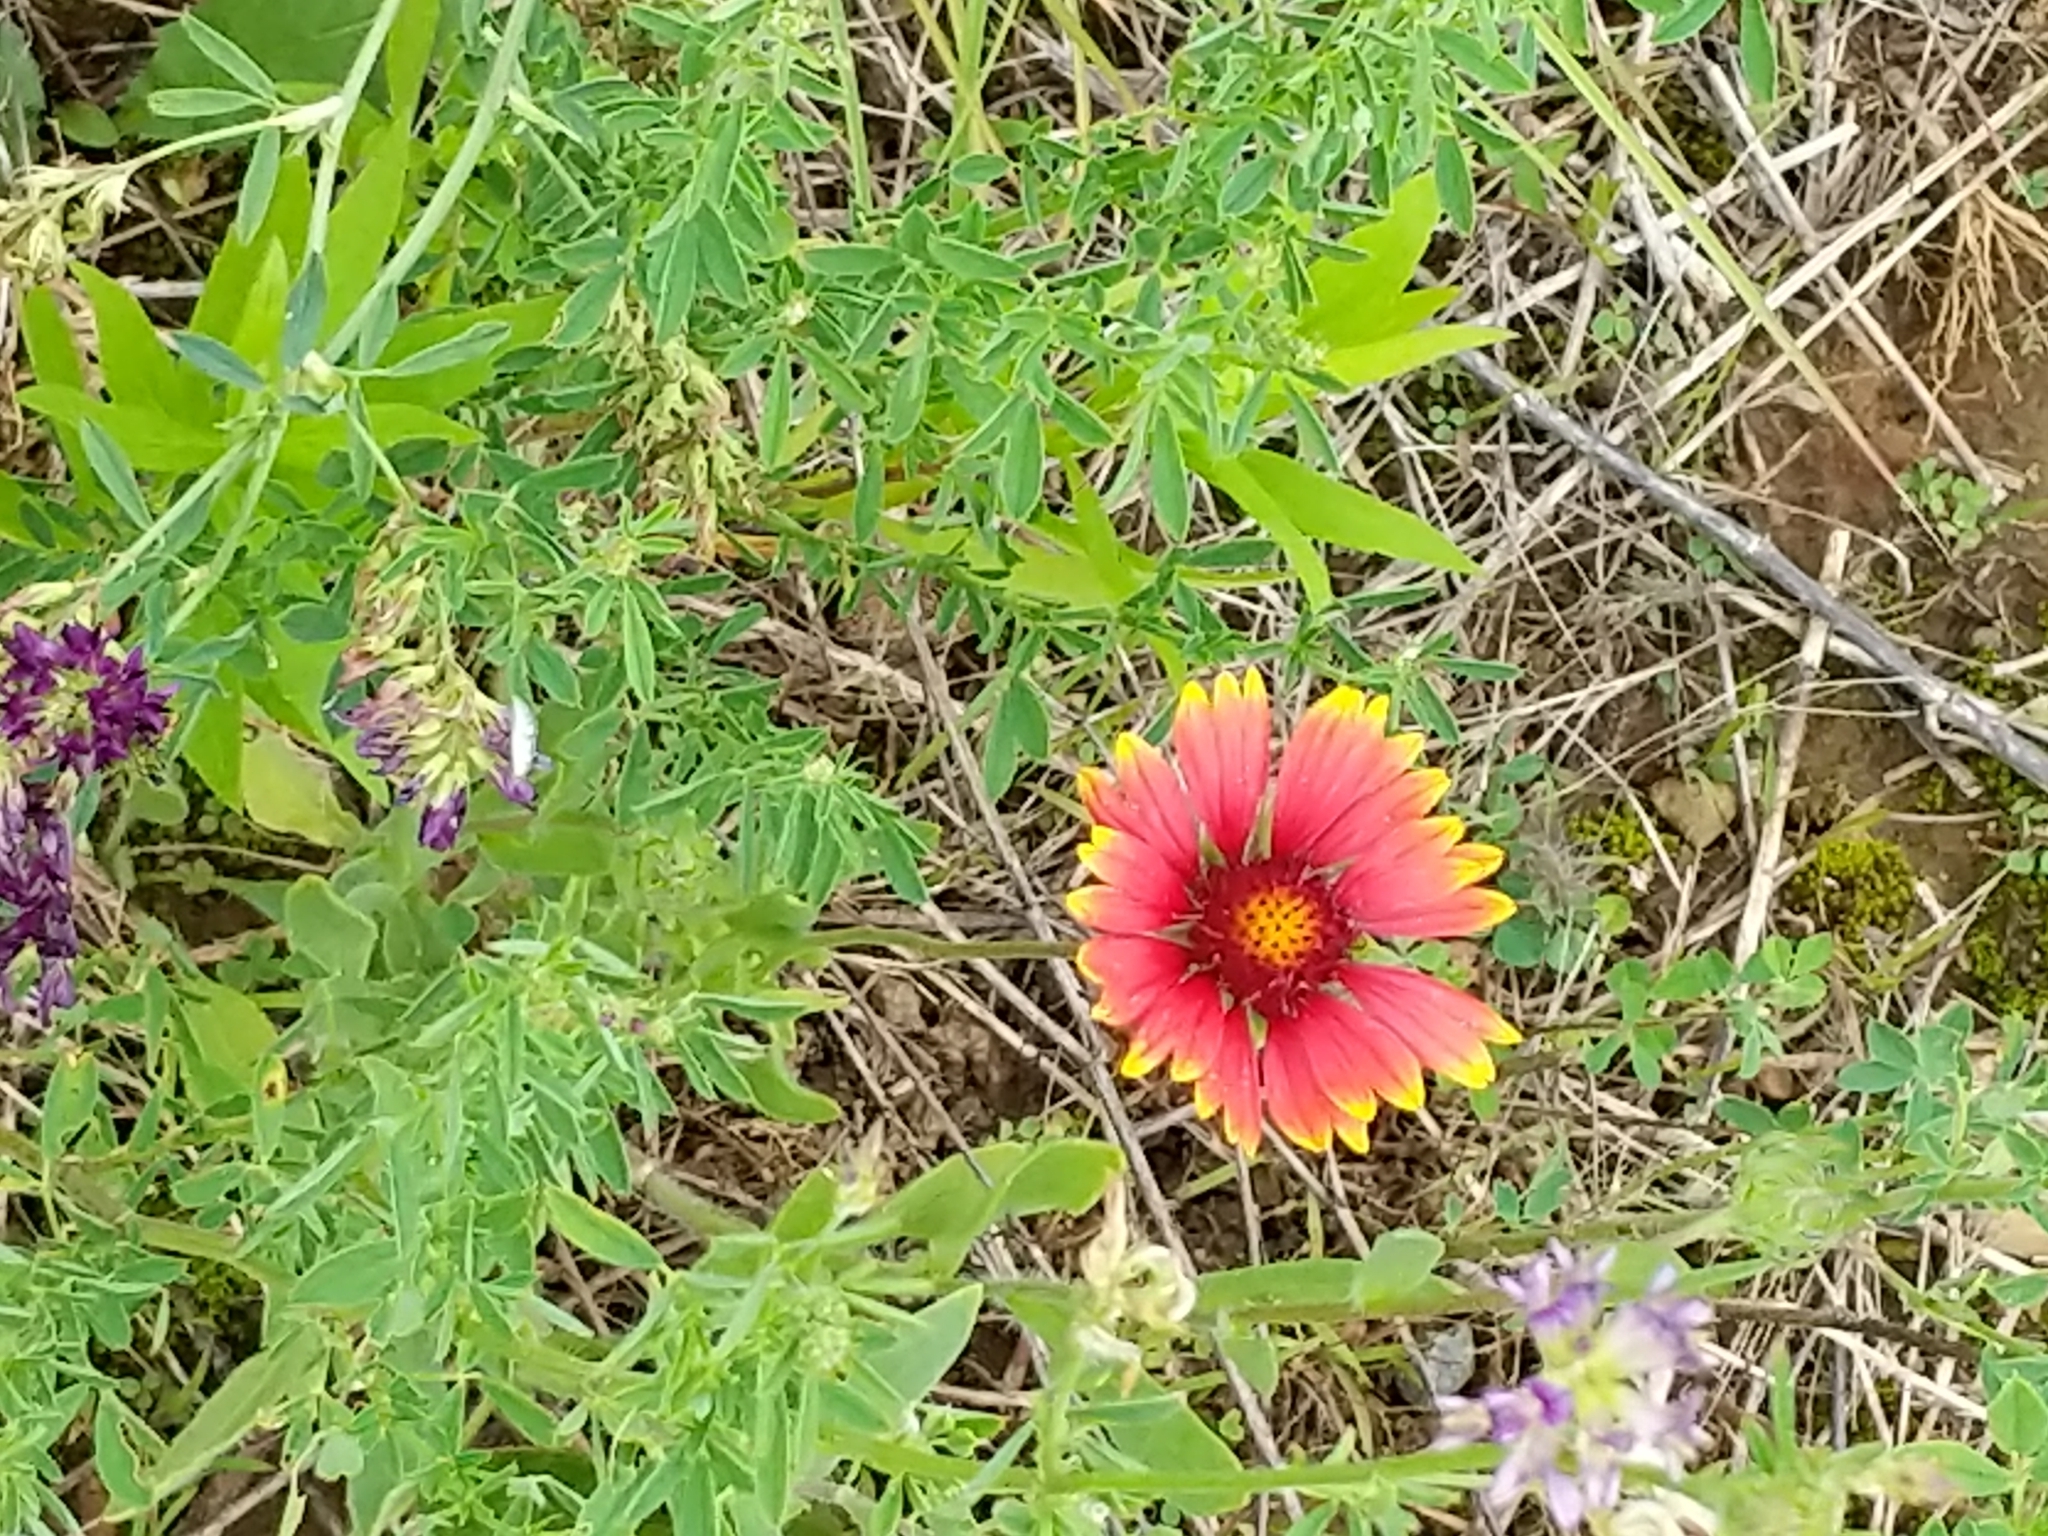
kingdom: Plantae
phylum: Tracheophyta
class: Magnoliopsida
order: Asterales
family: Asteraceae
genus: Gaillardia
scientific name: Gaillardia pulchella
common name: Firewheel
